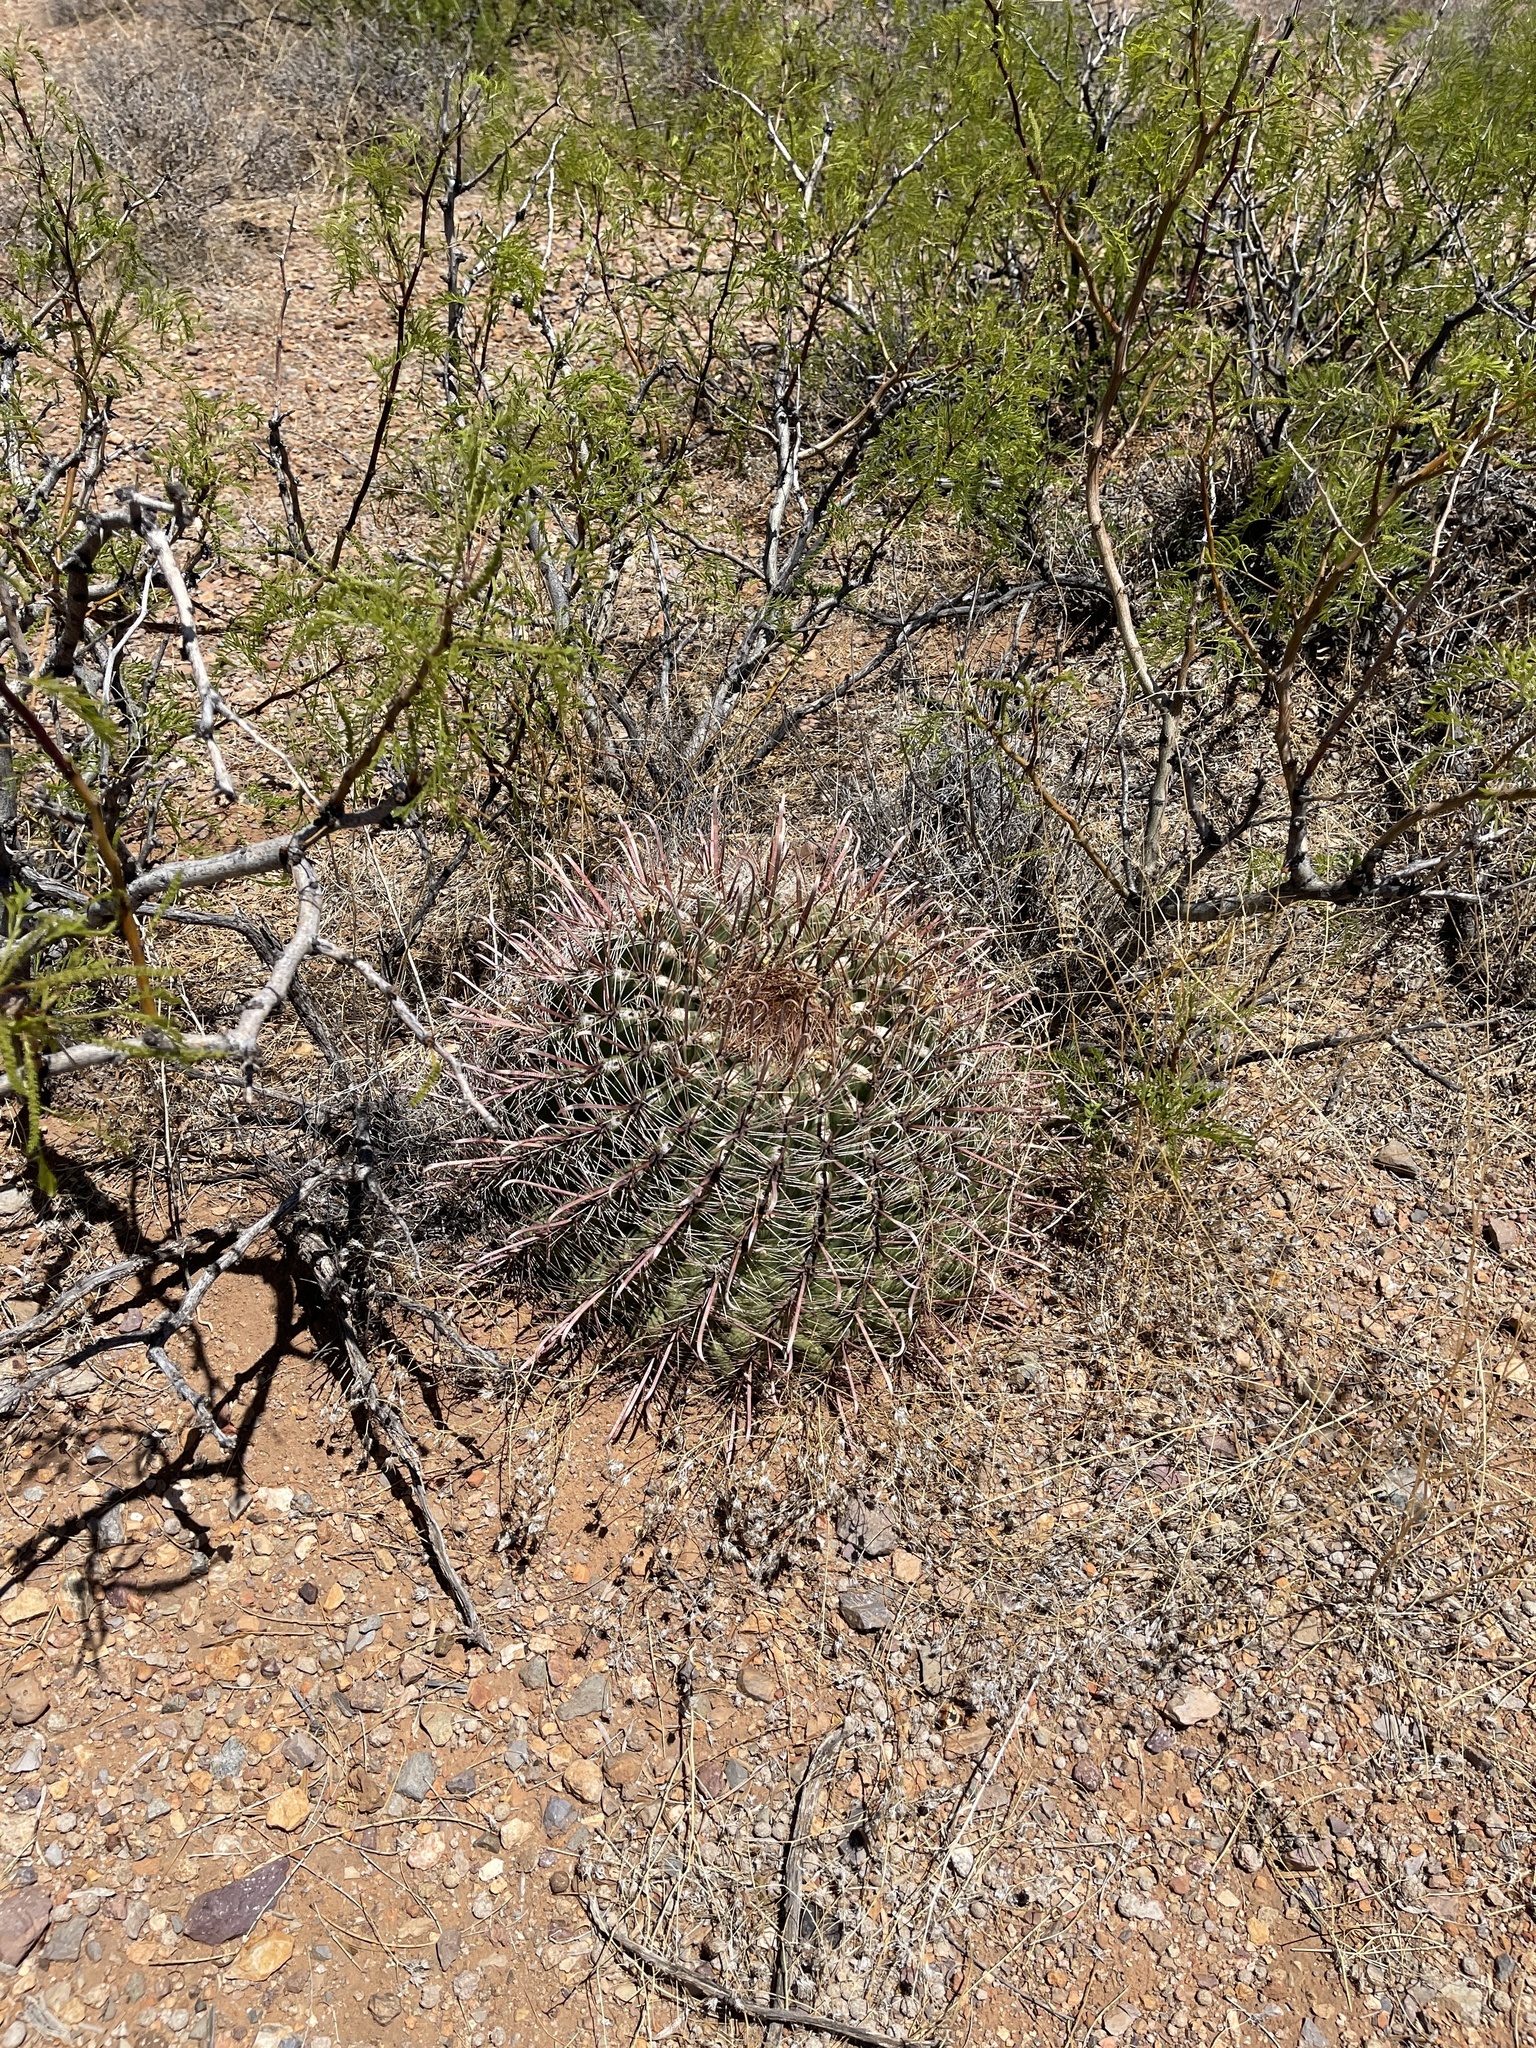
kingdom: Plantae
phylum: Tracheophyta
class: Magnoliopsida
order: Caryophyllales
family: Cactaceae
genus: Ferocactus
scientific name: Ferocactus wislizeni
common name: Candy barrel cactus
